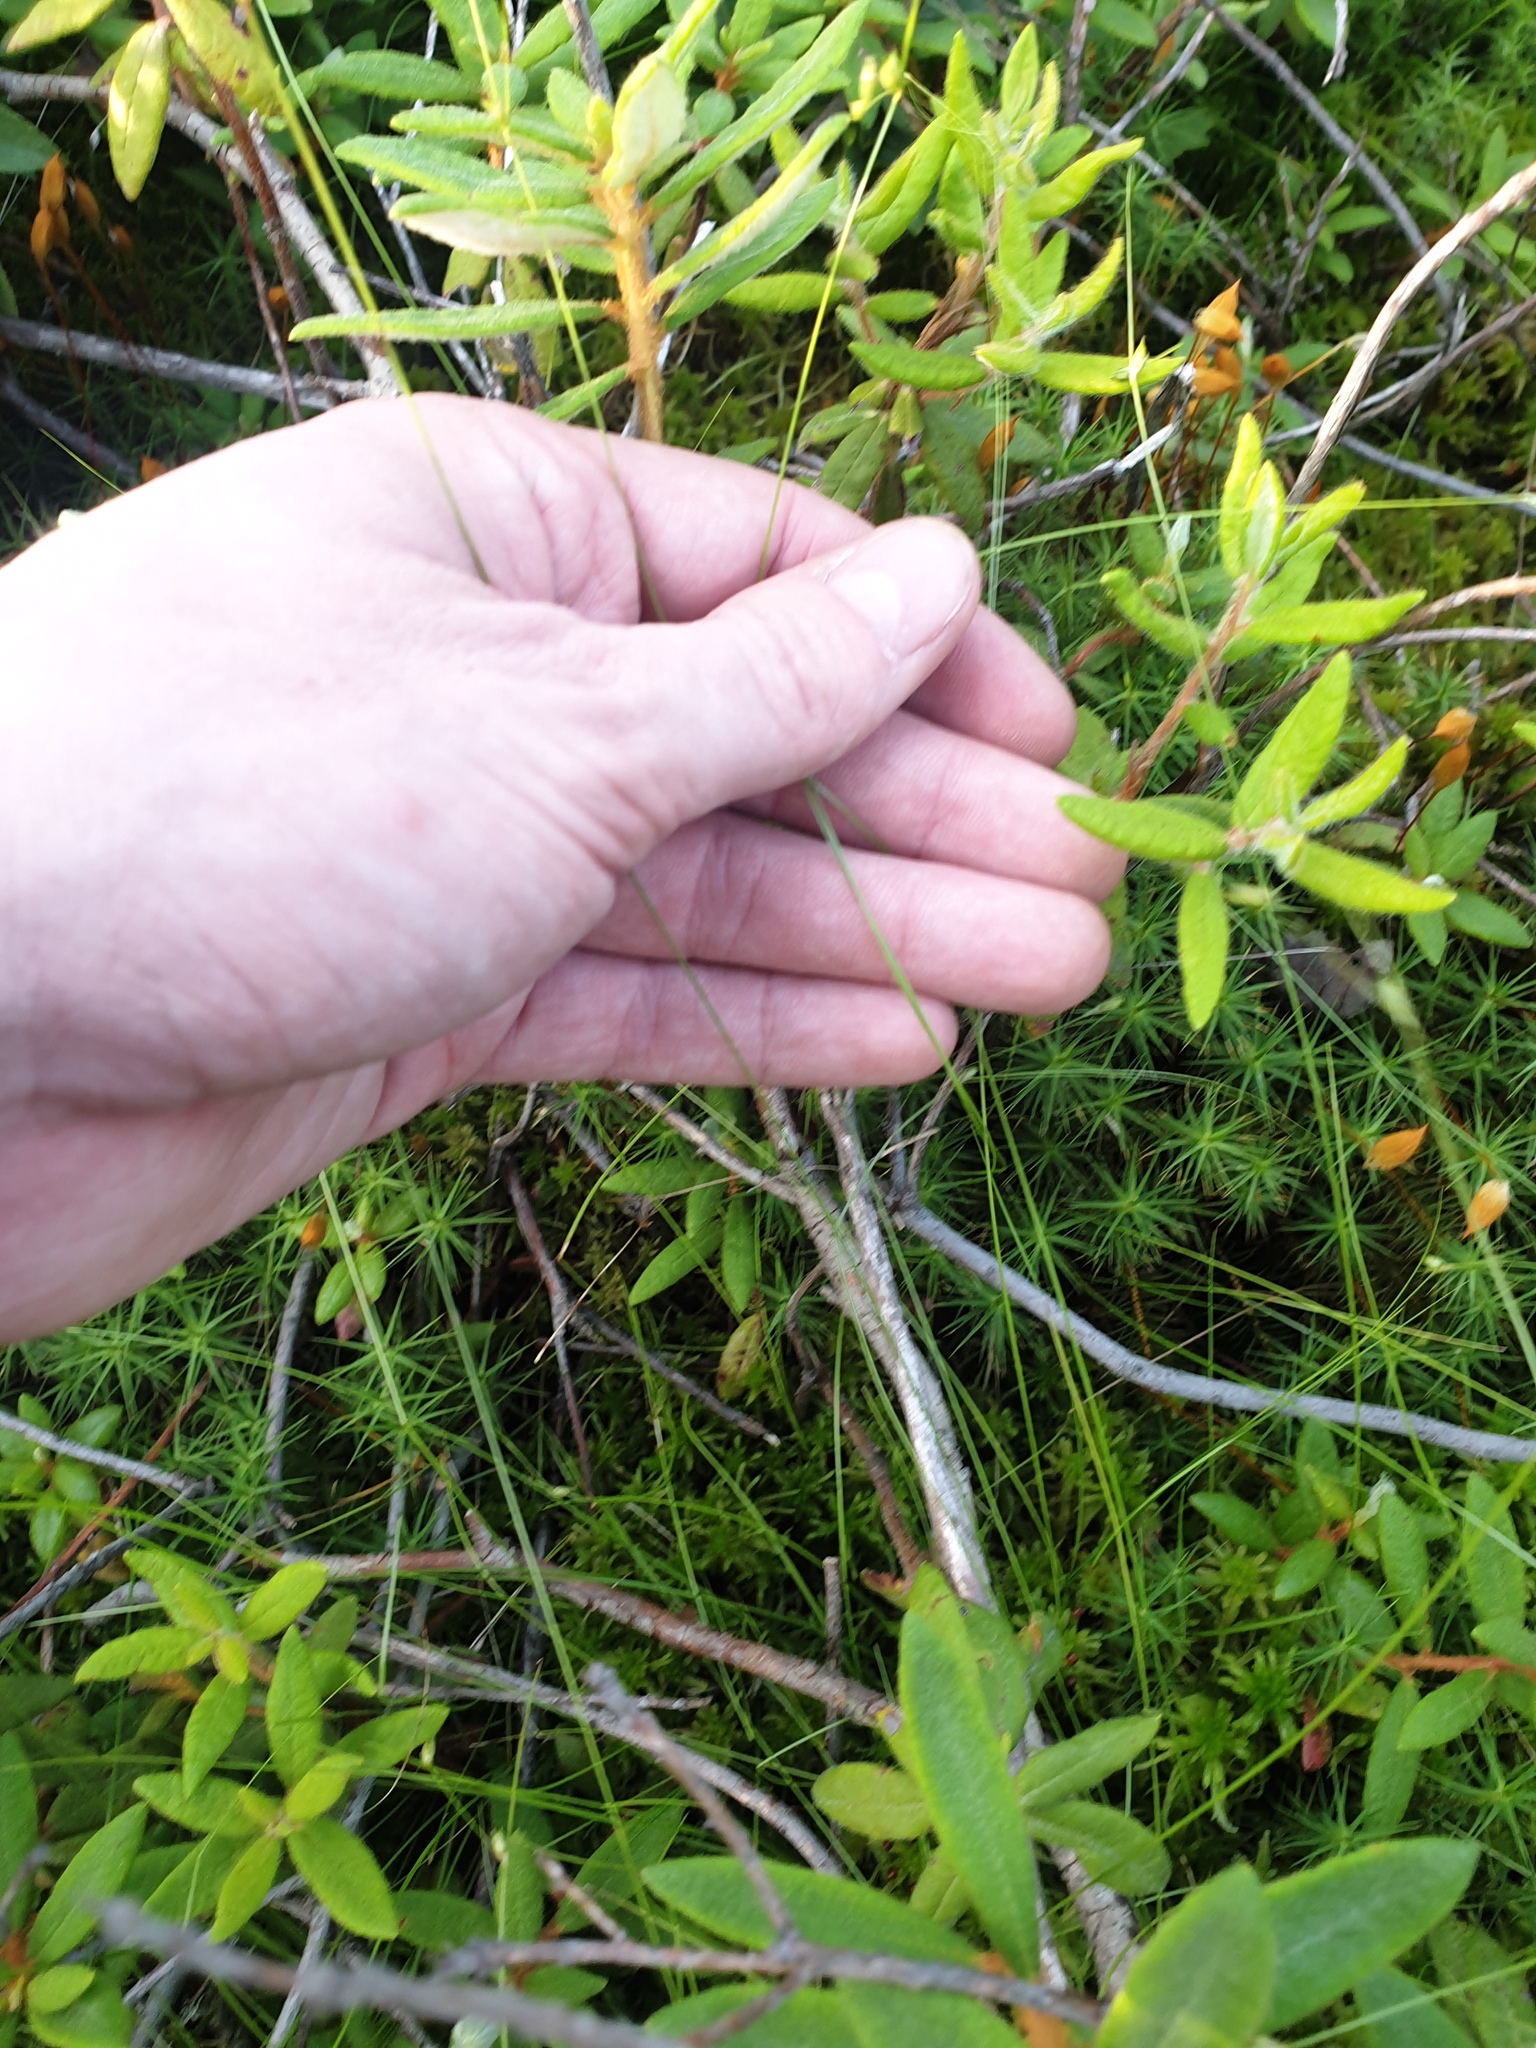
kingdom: Plantae
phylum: Tracheophyta
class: Magnoliopsida
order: Ericales
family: Ericaceae
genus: Rhododendron
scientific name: Rhododendron groenlandicum
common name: Bog labrador tea
